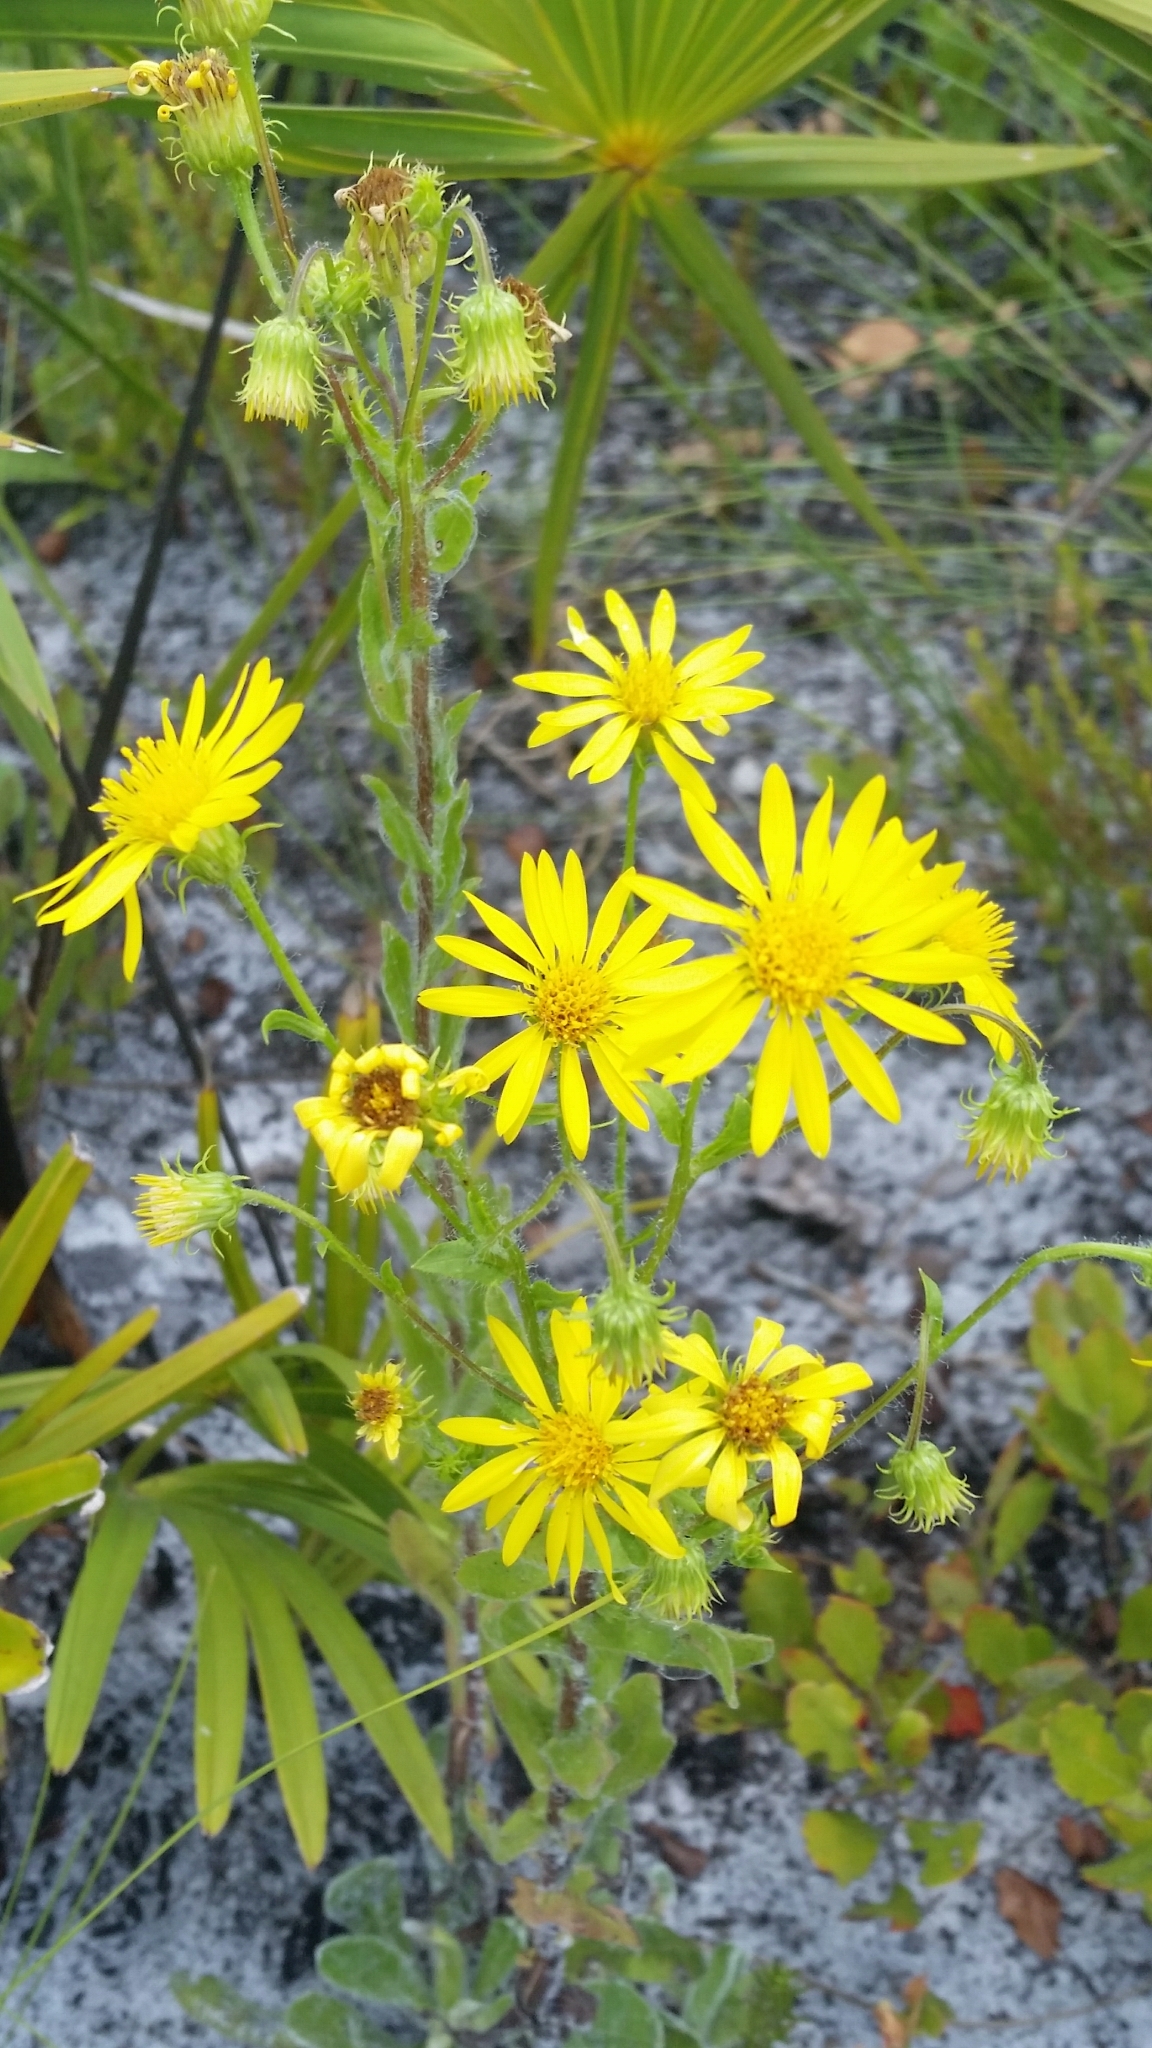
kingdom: Plantae
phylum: Tracheophyta
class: Magnoliopsida
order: Asterales
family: Asteraceae
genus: Chrysopsis
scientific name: Chrysopsis subulata
